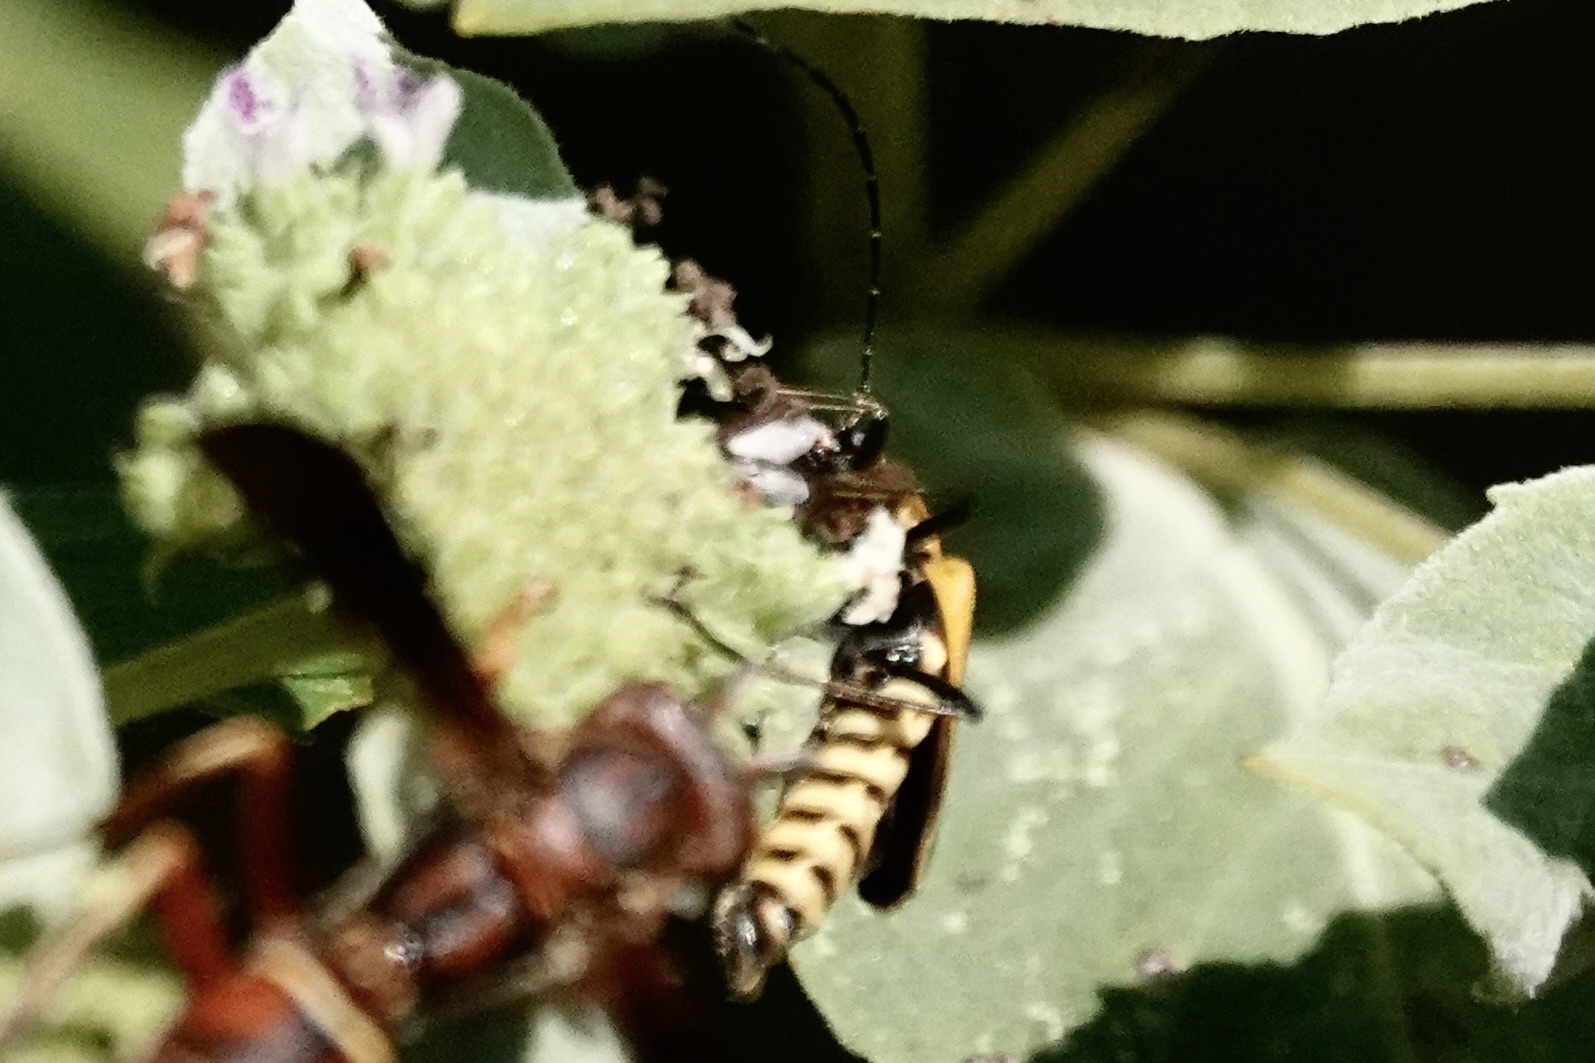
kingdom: Animalia
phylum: Arthropoda
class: Insecta
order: Coleoptera
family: Cantharidae
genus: Chauliognathus
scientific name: Chauliognathus pensylvanicus
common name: Goldenrod soldier beetle
